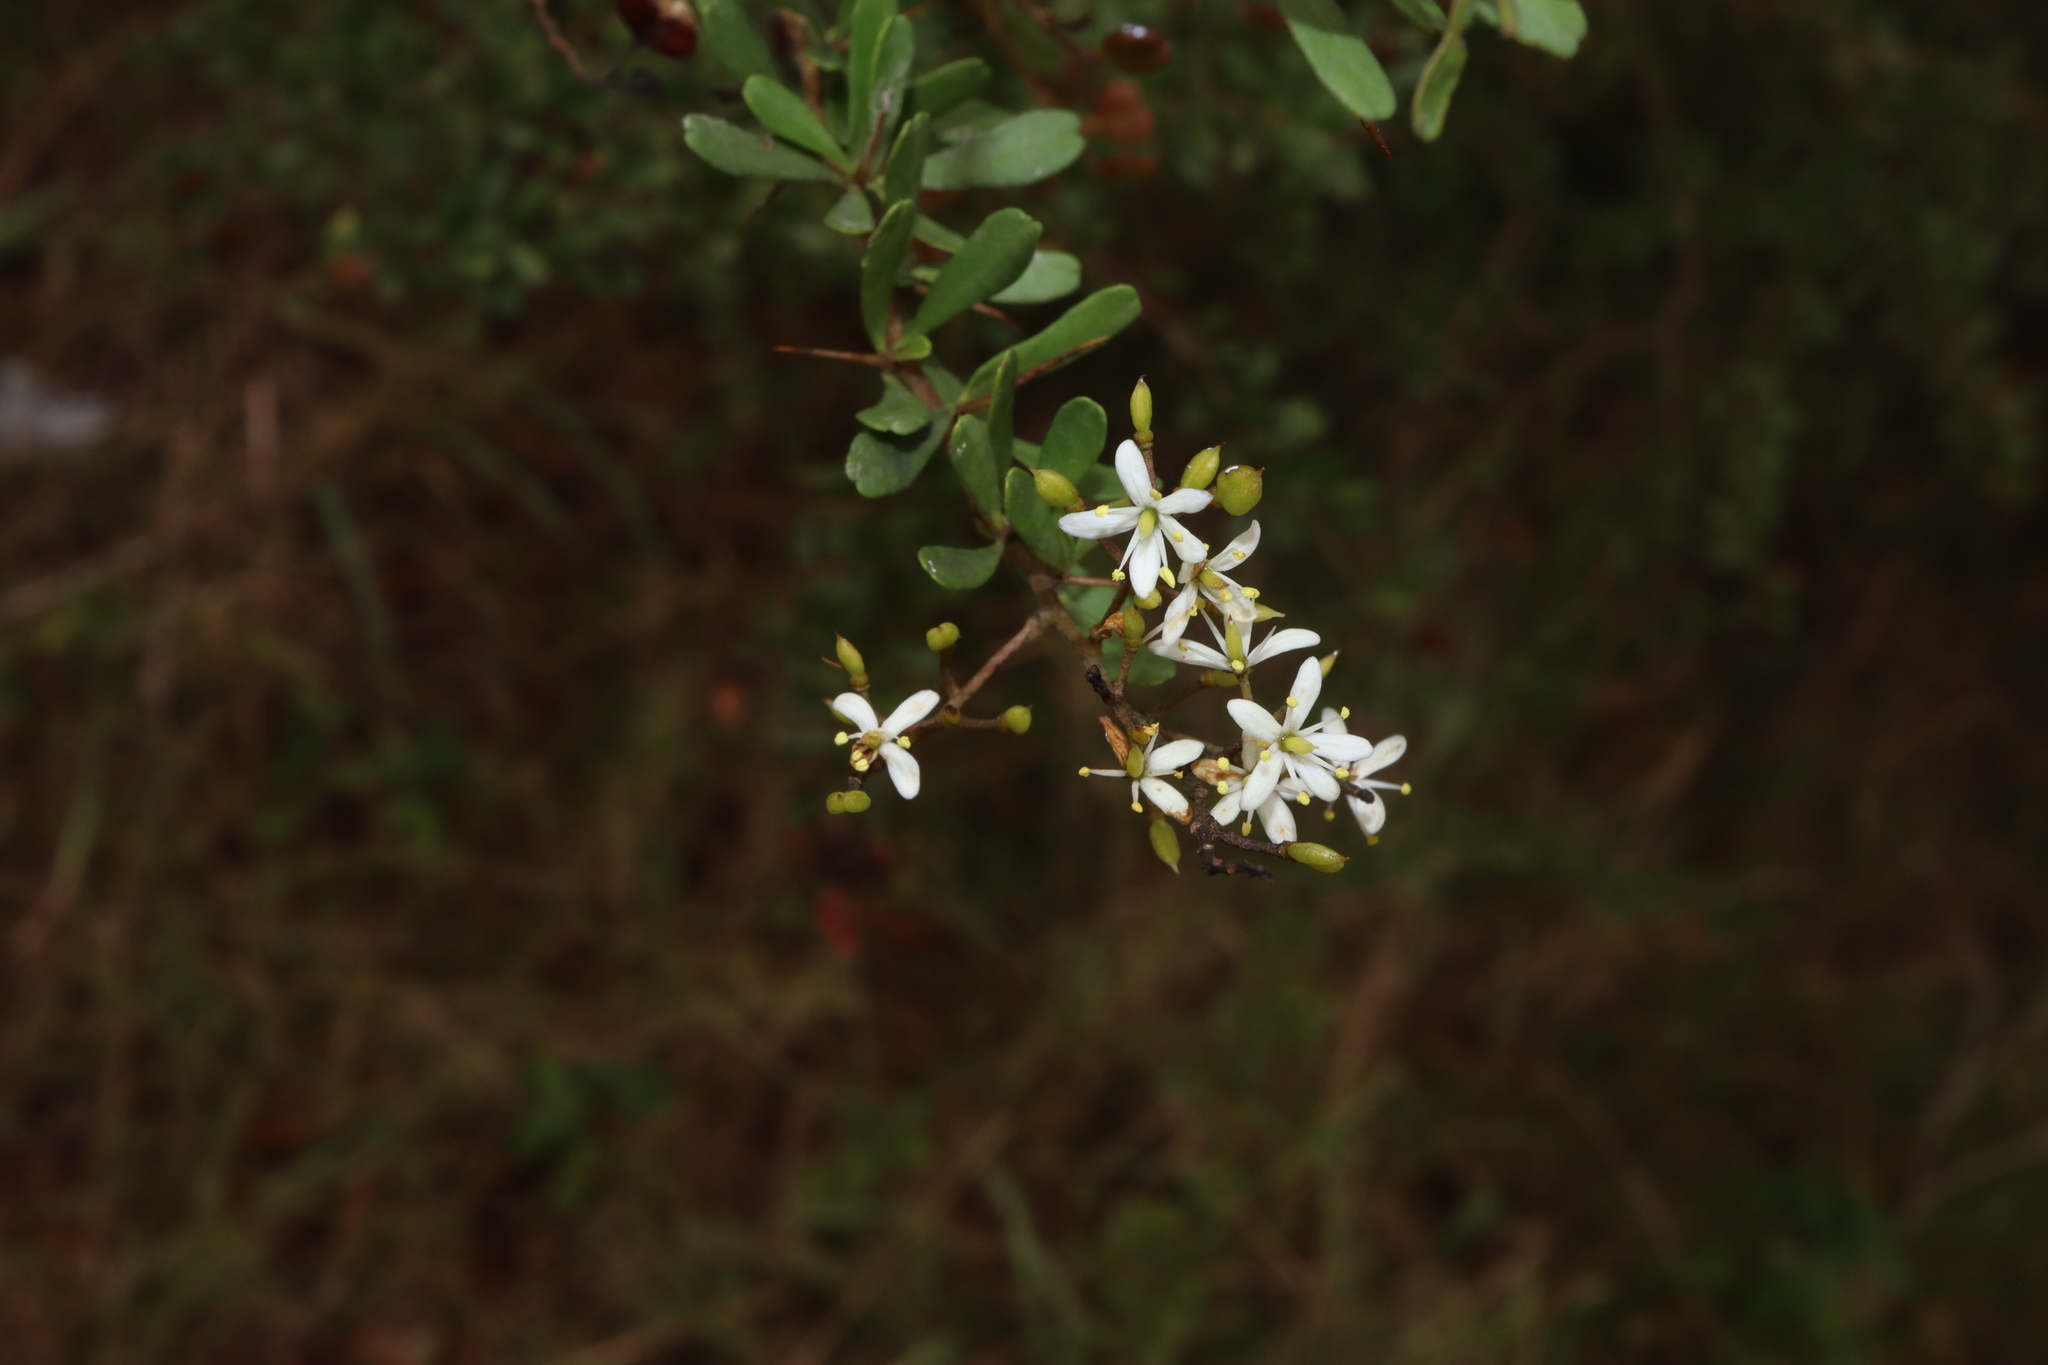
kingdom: Plantae
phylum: Tracheophyta
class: Magnoliopsida
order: Apiales
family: Pittosporaceae
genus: Bursaria
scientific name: Bursaria spinosa
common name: Australian blackthorn
